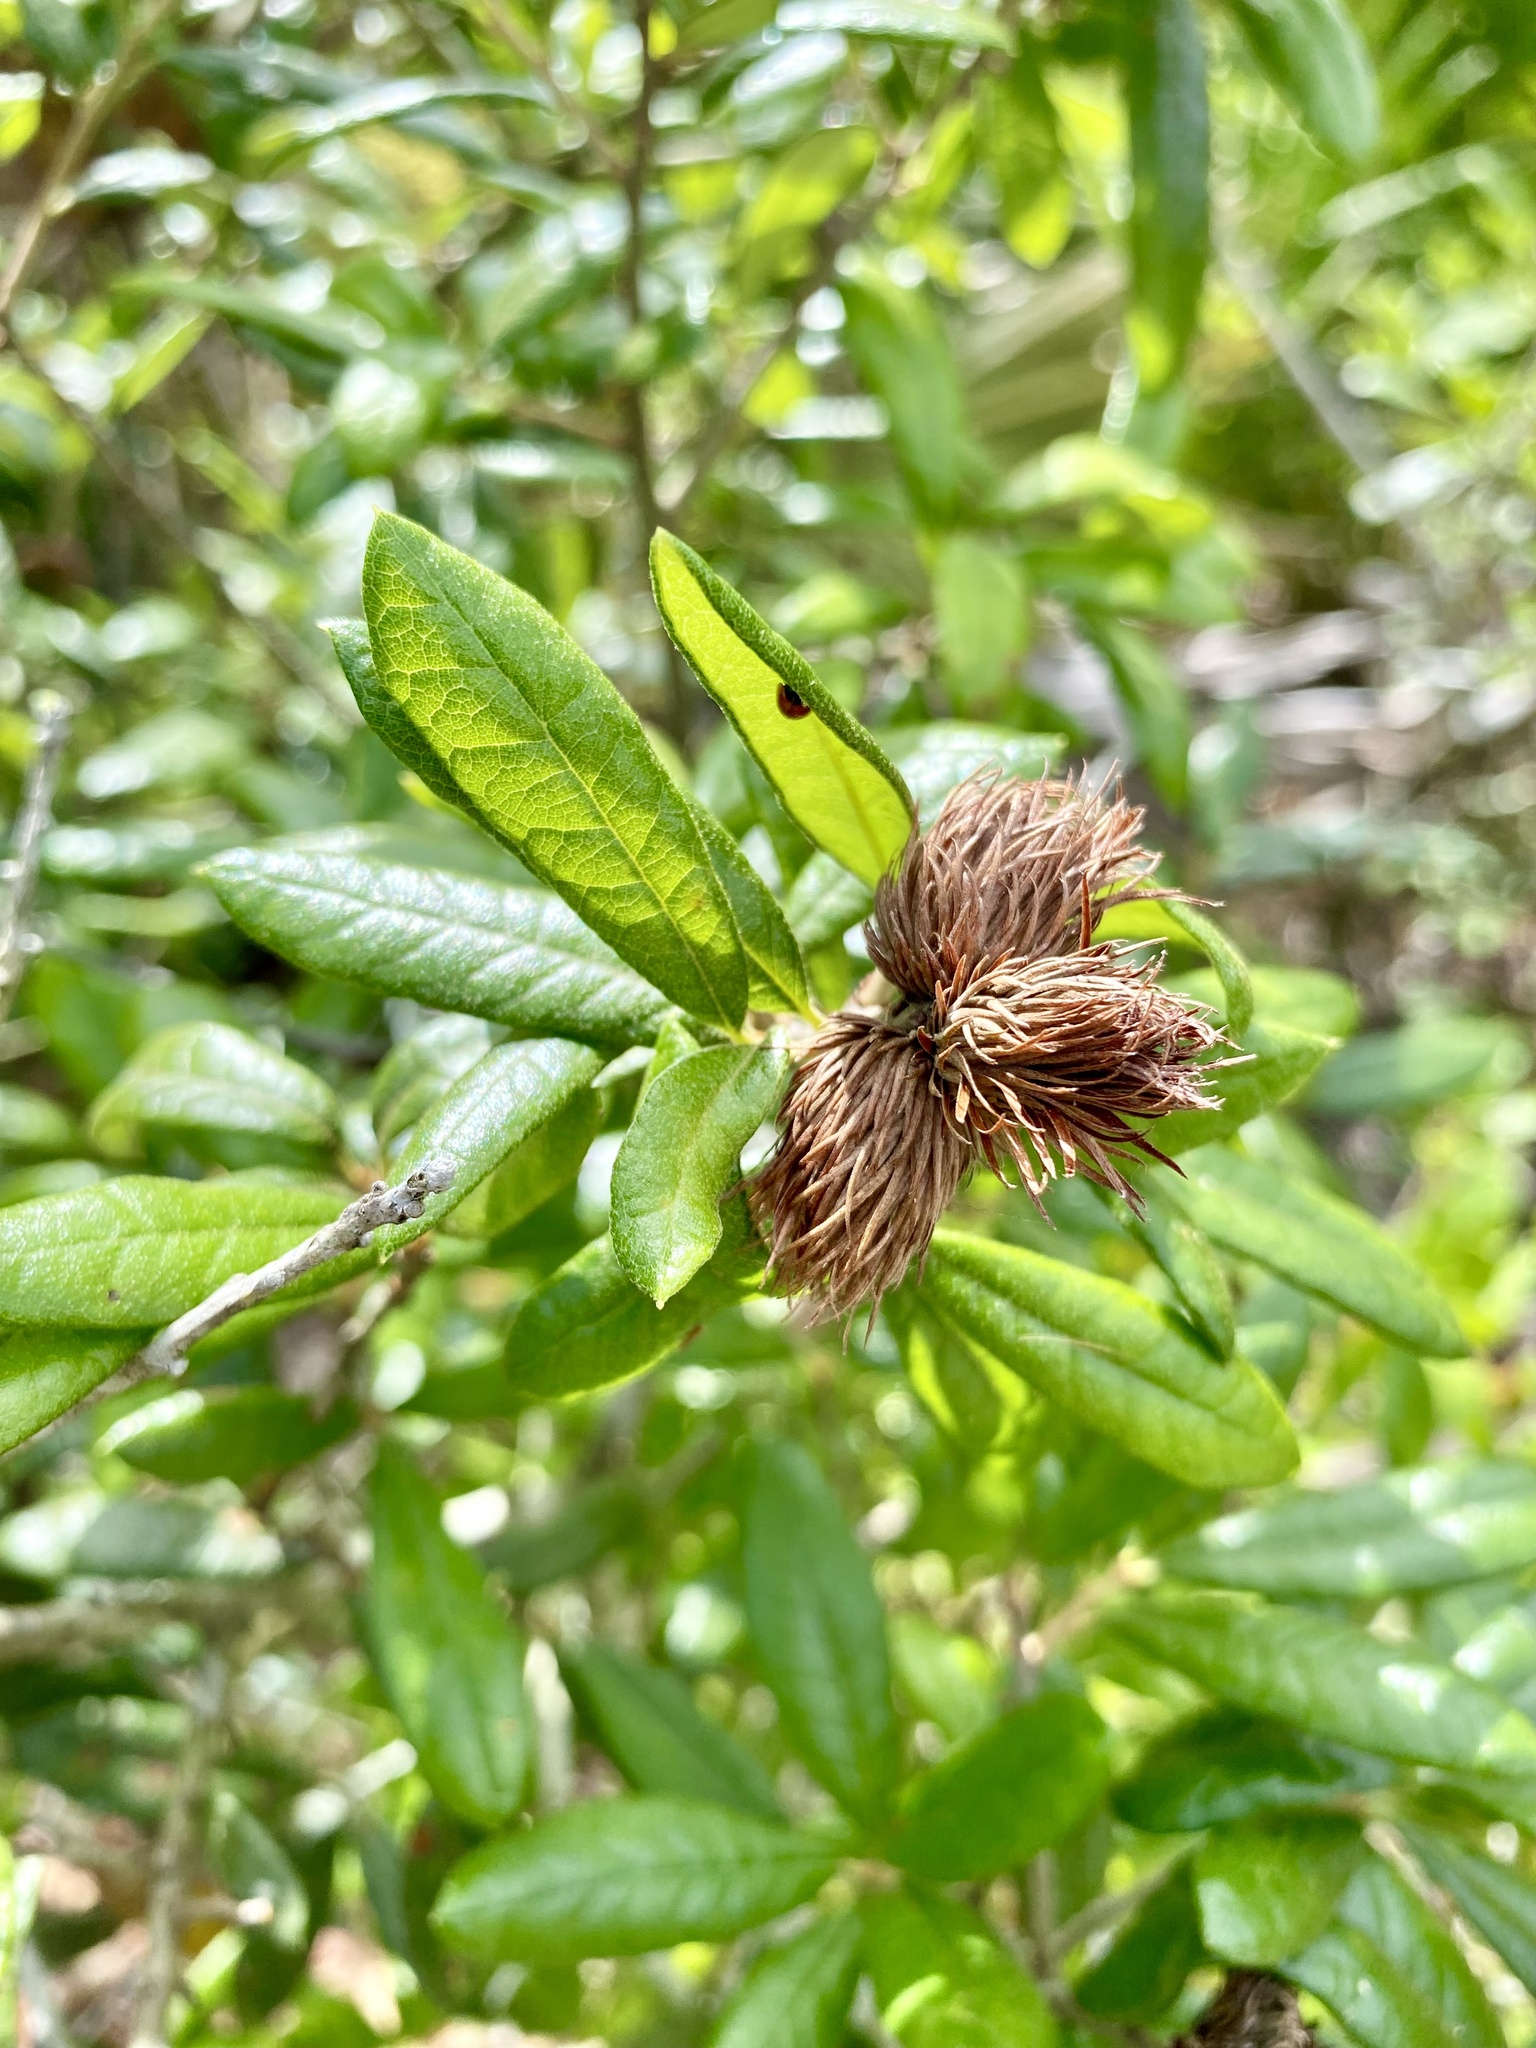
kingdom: Animalia
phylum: Arthropoda
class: Insecta
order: Hymenoptera
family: Cynipidae
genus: Andricus
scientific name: Andricus quercusfoliatus
